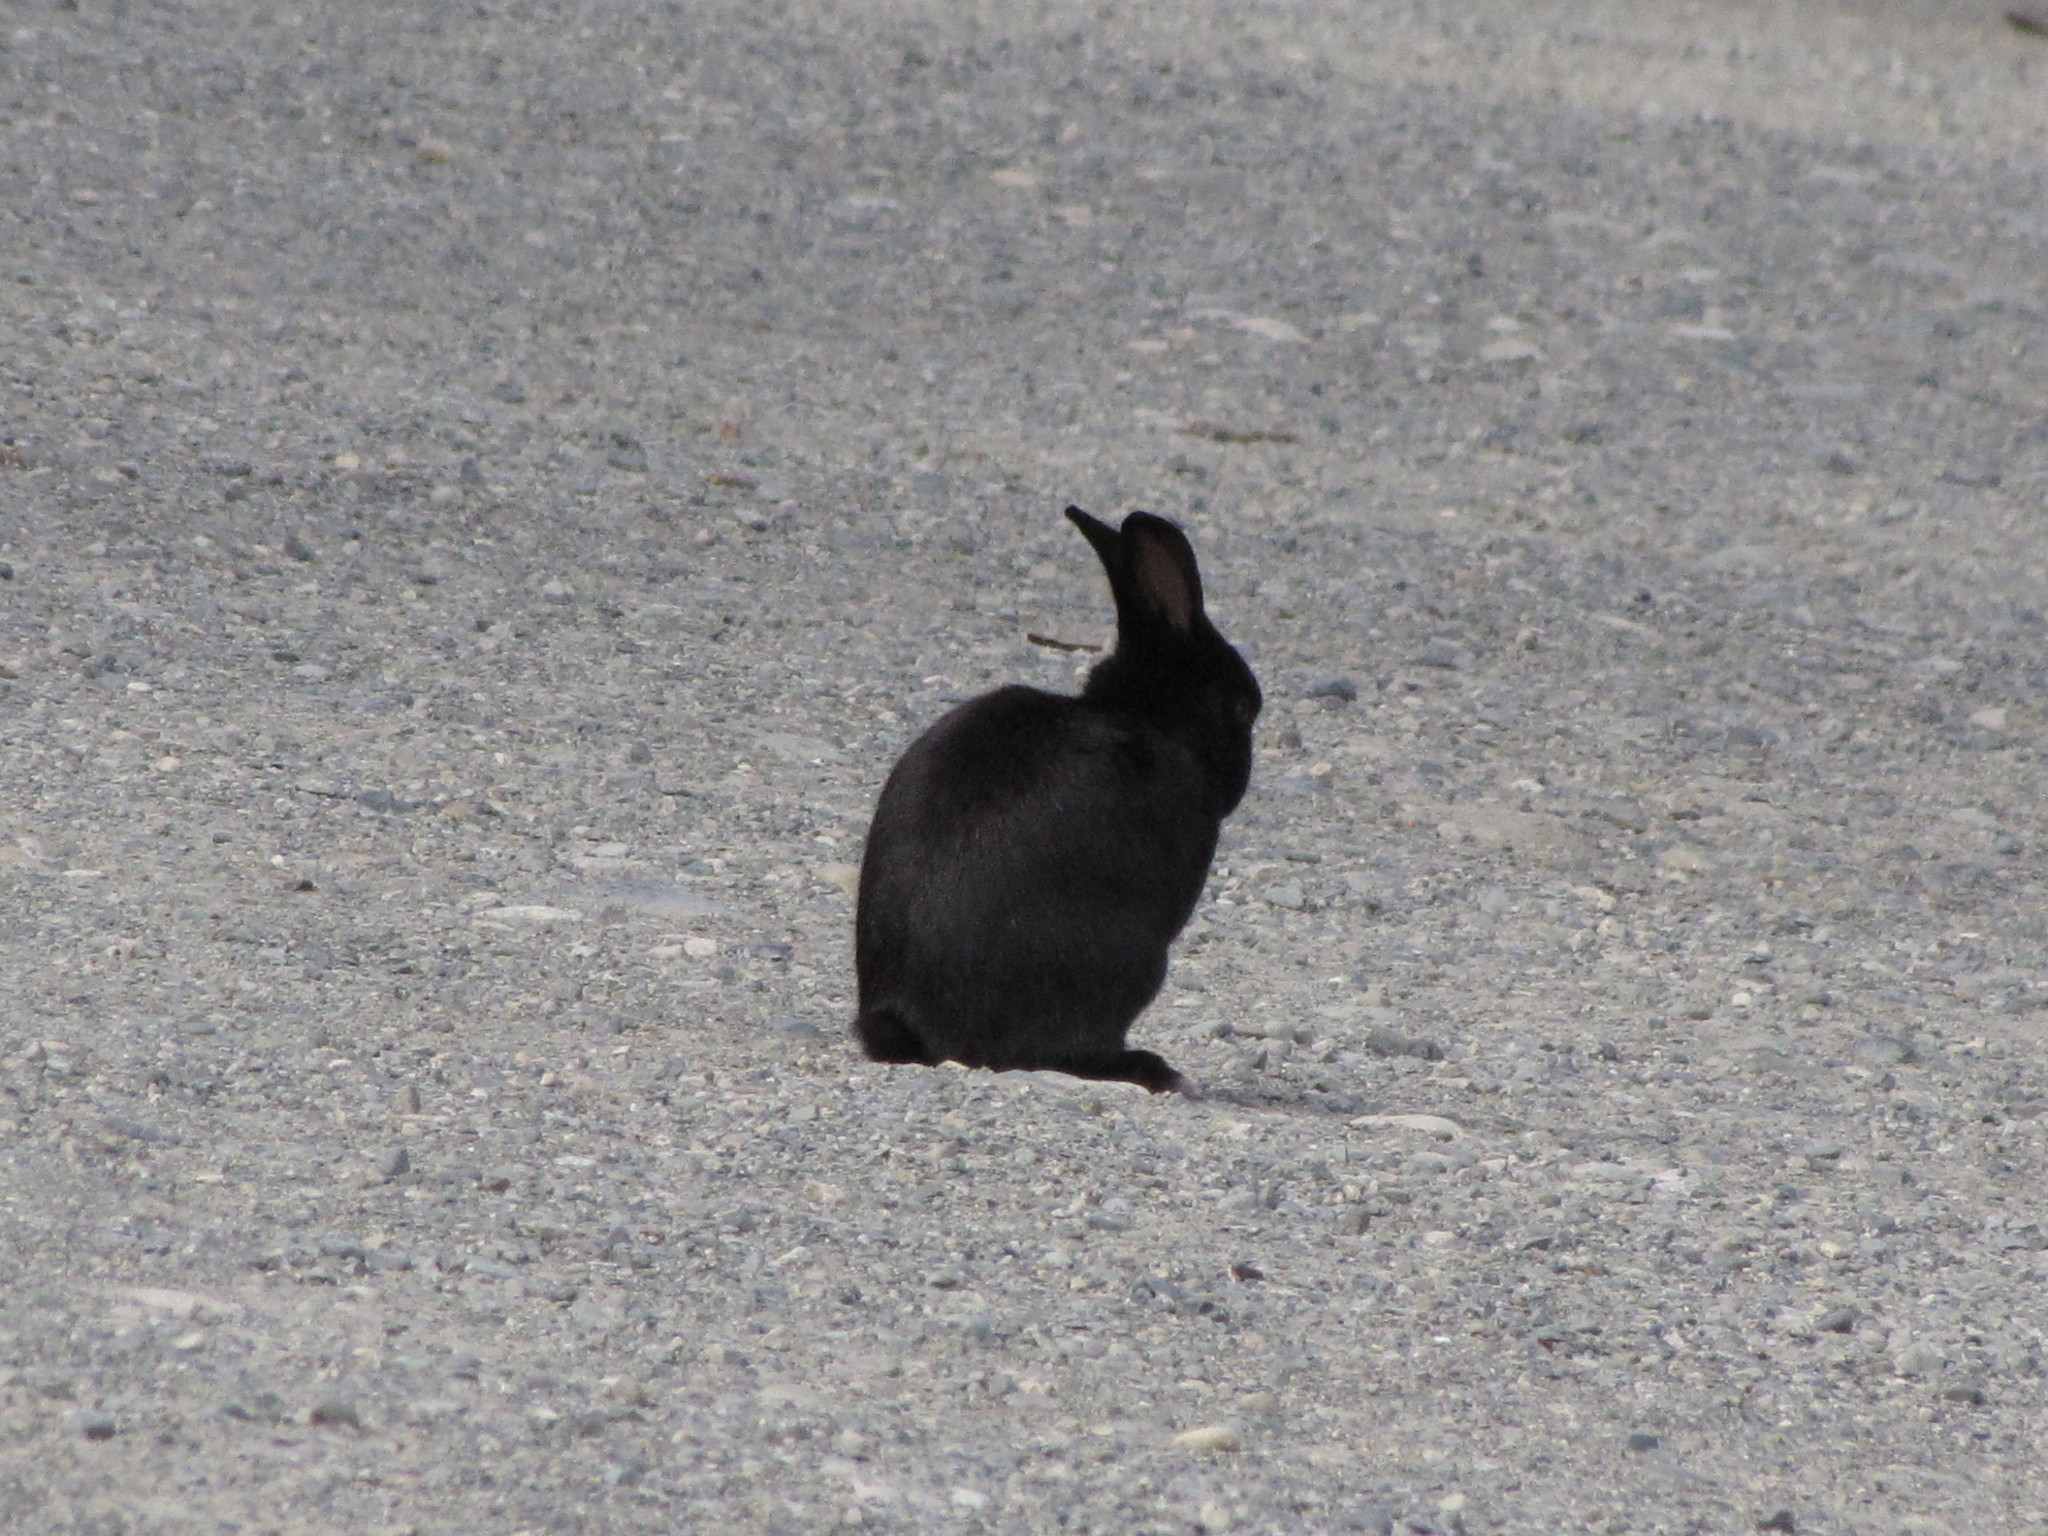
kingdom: Animalia
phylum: Chordata
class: Mammalia
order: Lagomorpha
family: Leporidae
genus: Oryctolagus
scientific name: Oryctolagus cuniculus
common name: European rabbit
